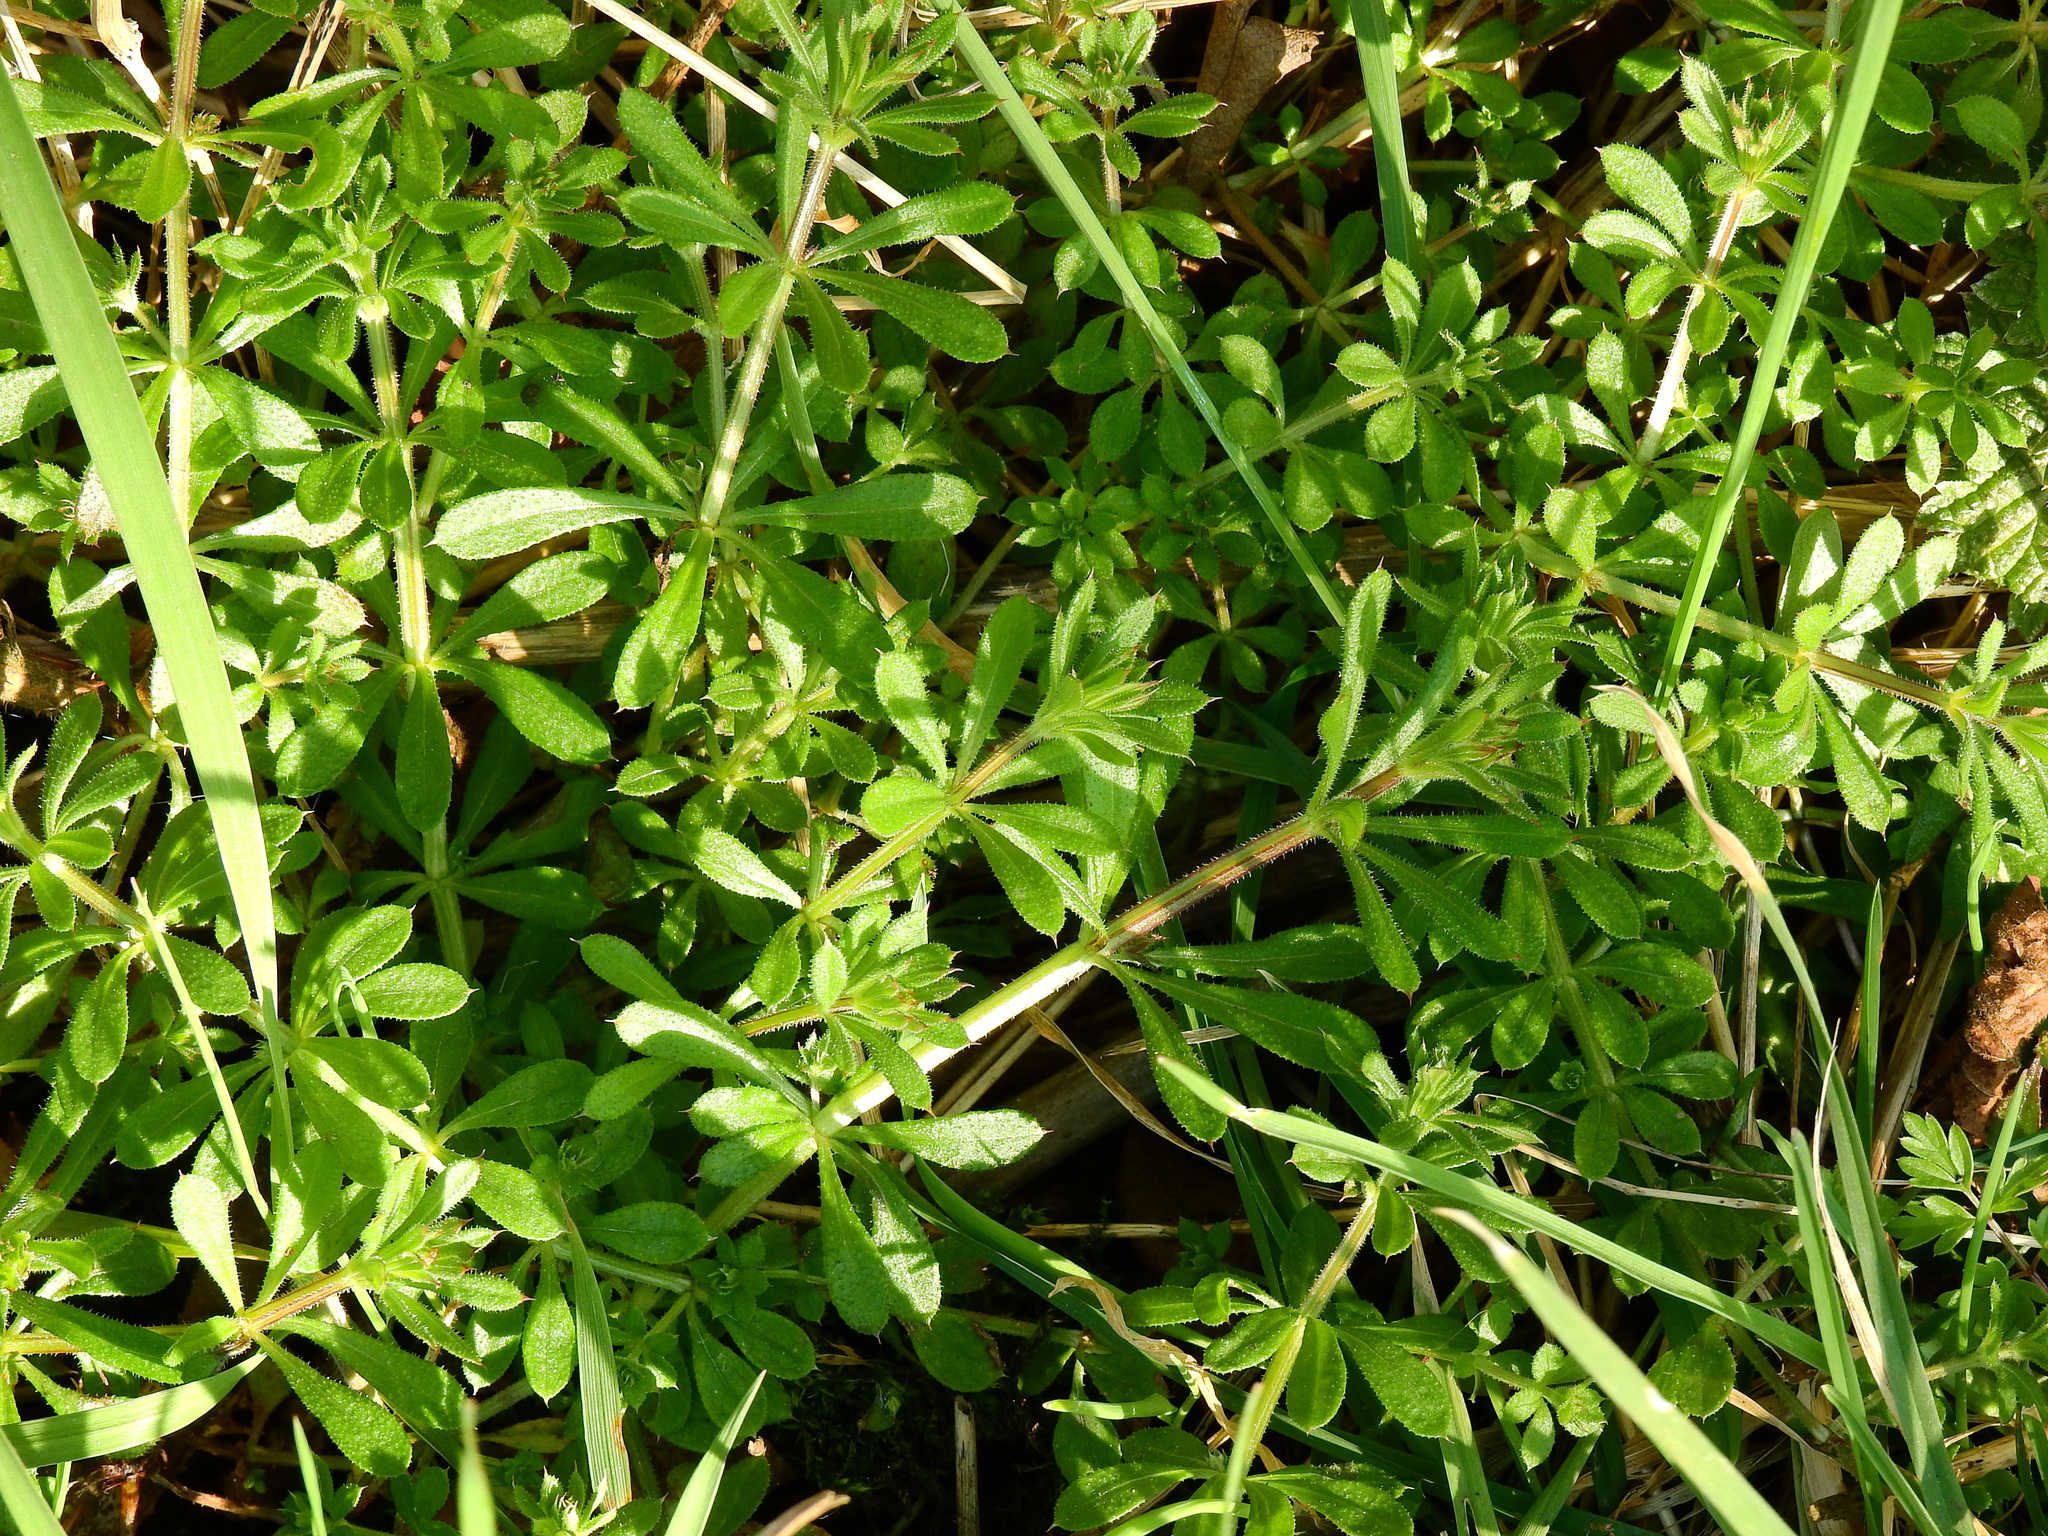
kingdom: Plantae
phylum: Tracheophyta
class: Magnoliopsida
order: Gentianales
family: Rubiaceae
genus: Galium
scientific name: Galium aparine
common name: Cleavers
